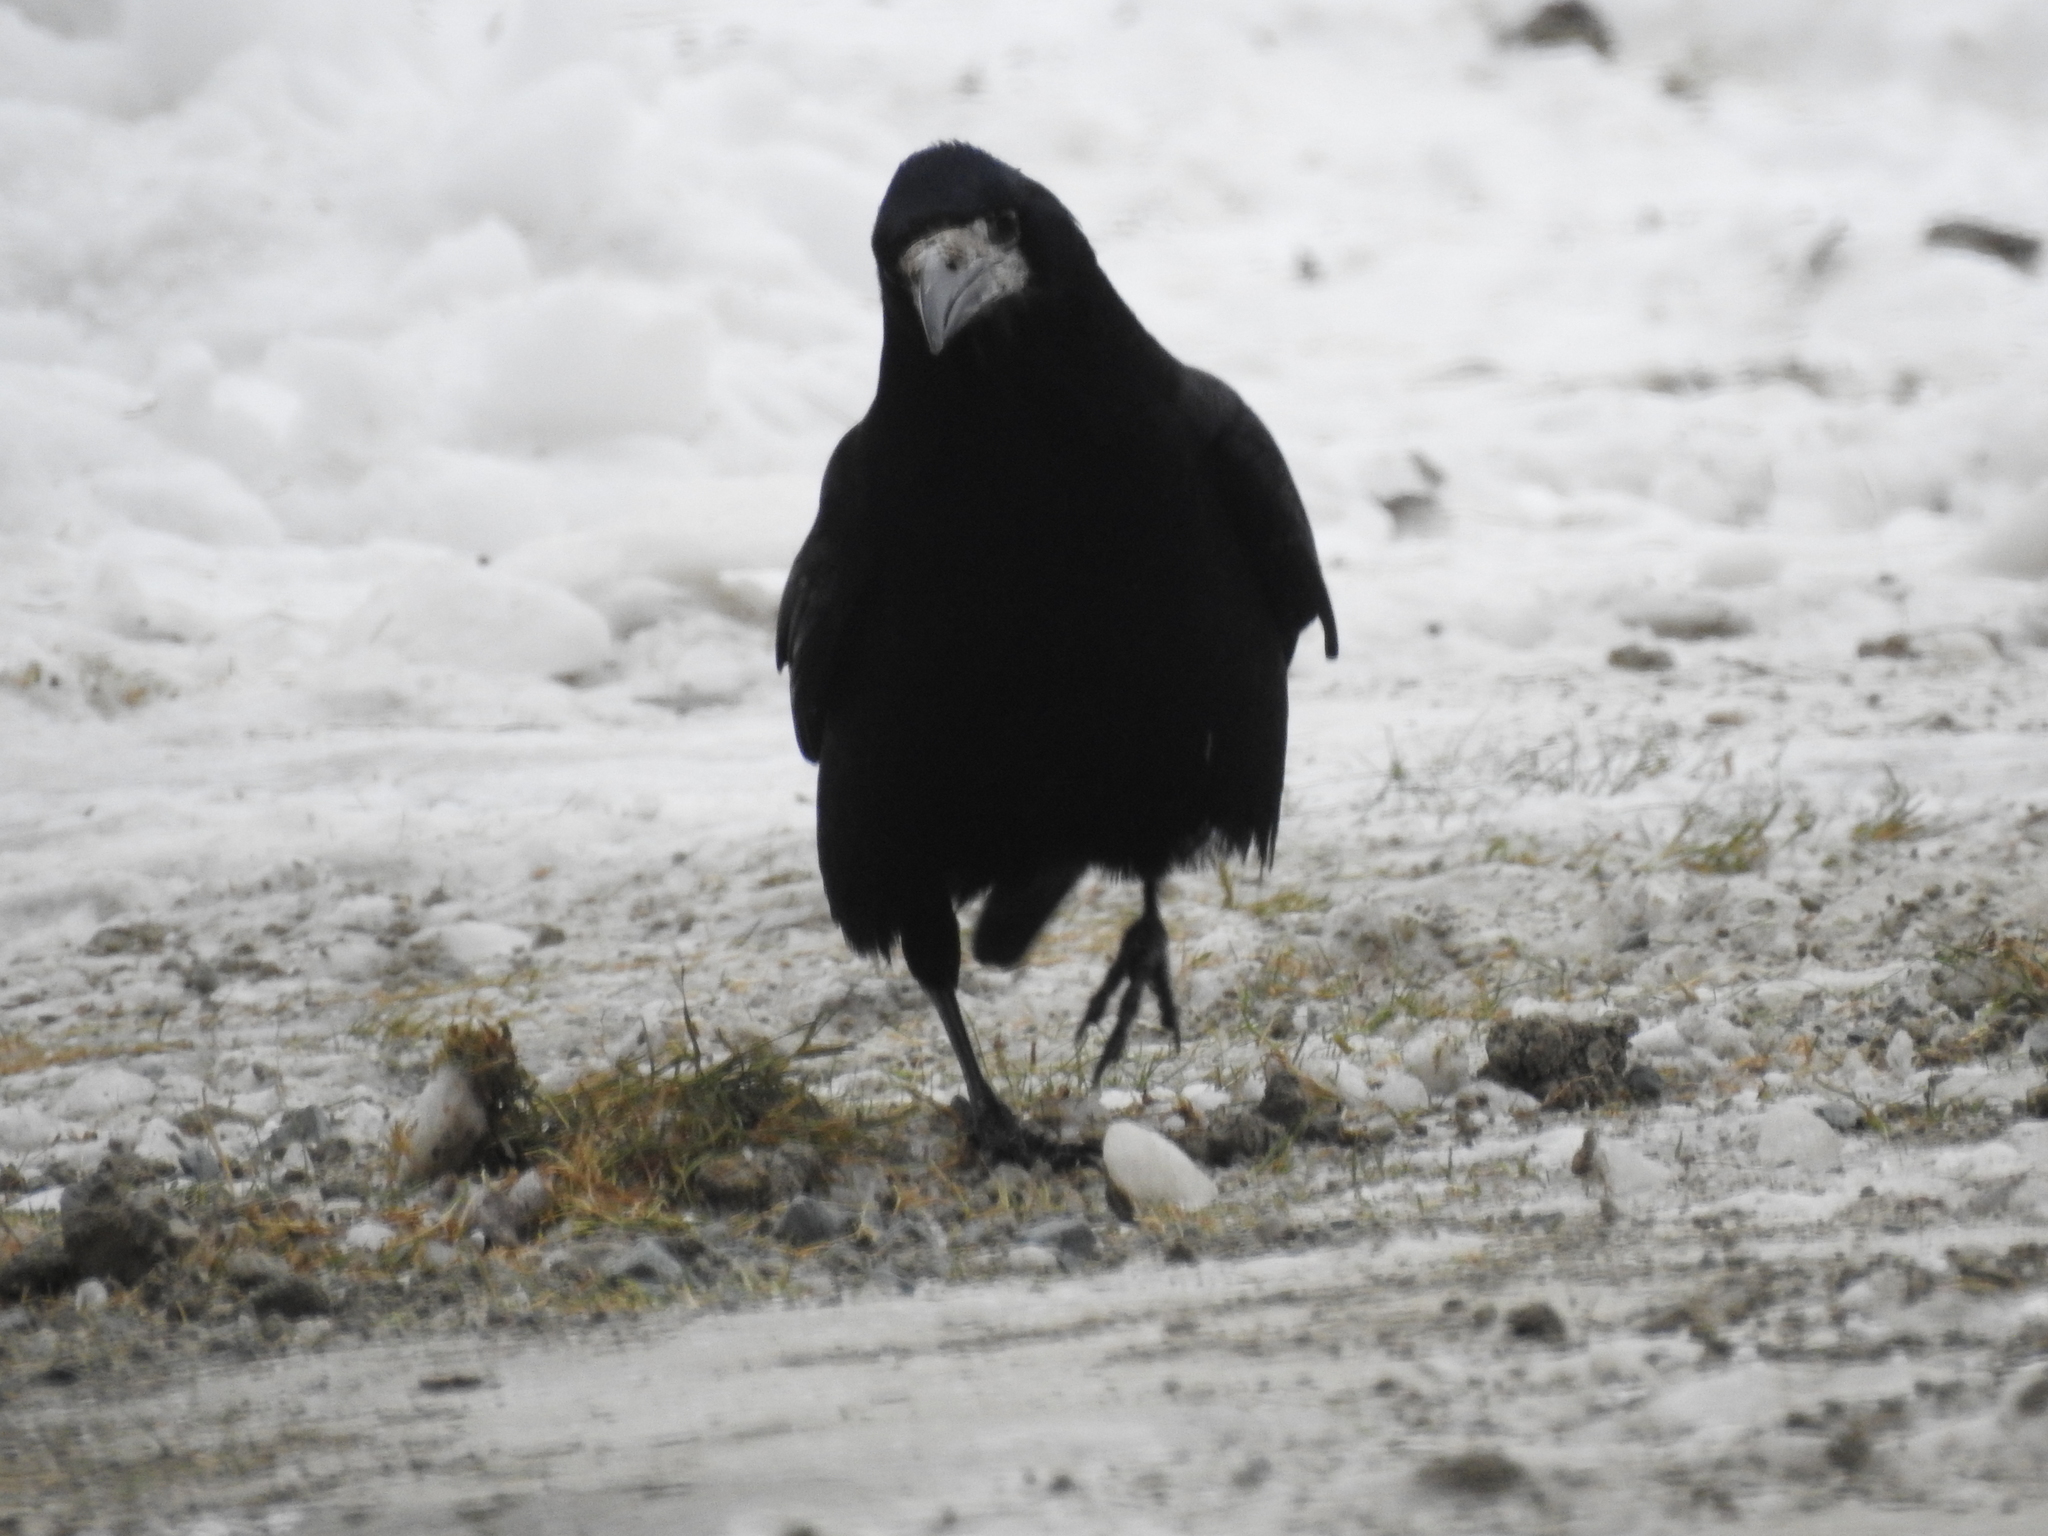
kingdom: Animalia
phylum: Chordata
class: Aves
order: Passeriformes
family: Corvidae
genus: Corvus
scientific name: Corvus frugilegus
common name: Rook
